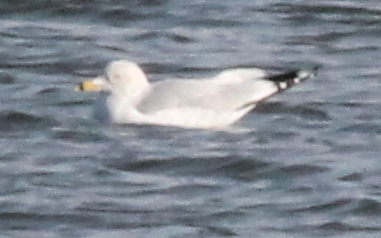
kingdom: Animalia
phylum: Chordata
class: Aves
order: Charadriiformes
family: Laridae
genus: Larus
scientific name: Larus delawarensis
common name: Ring-billed gull
